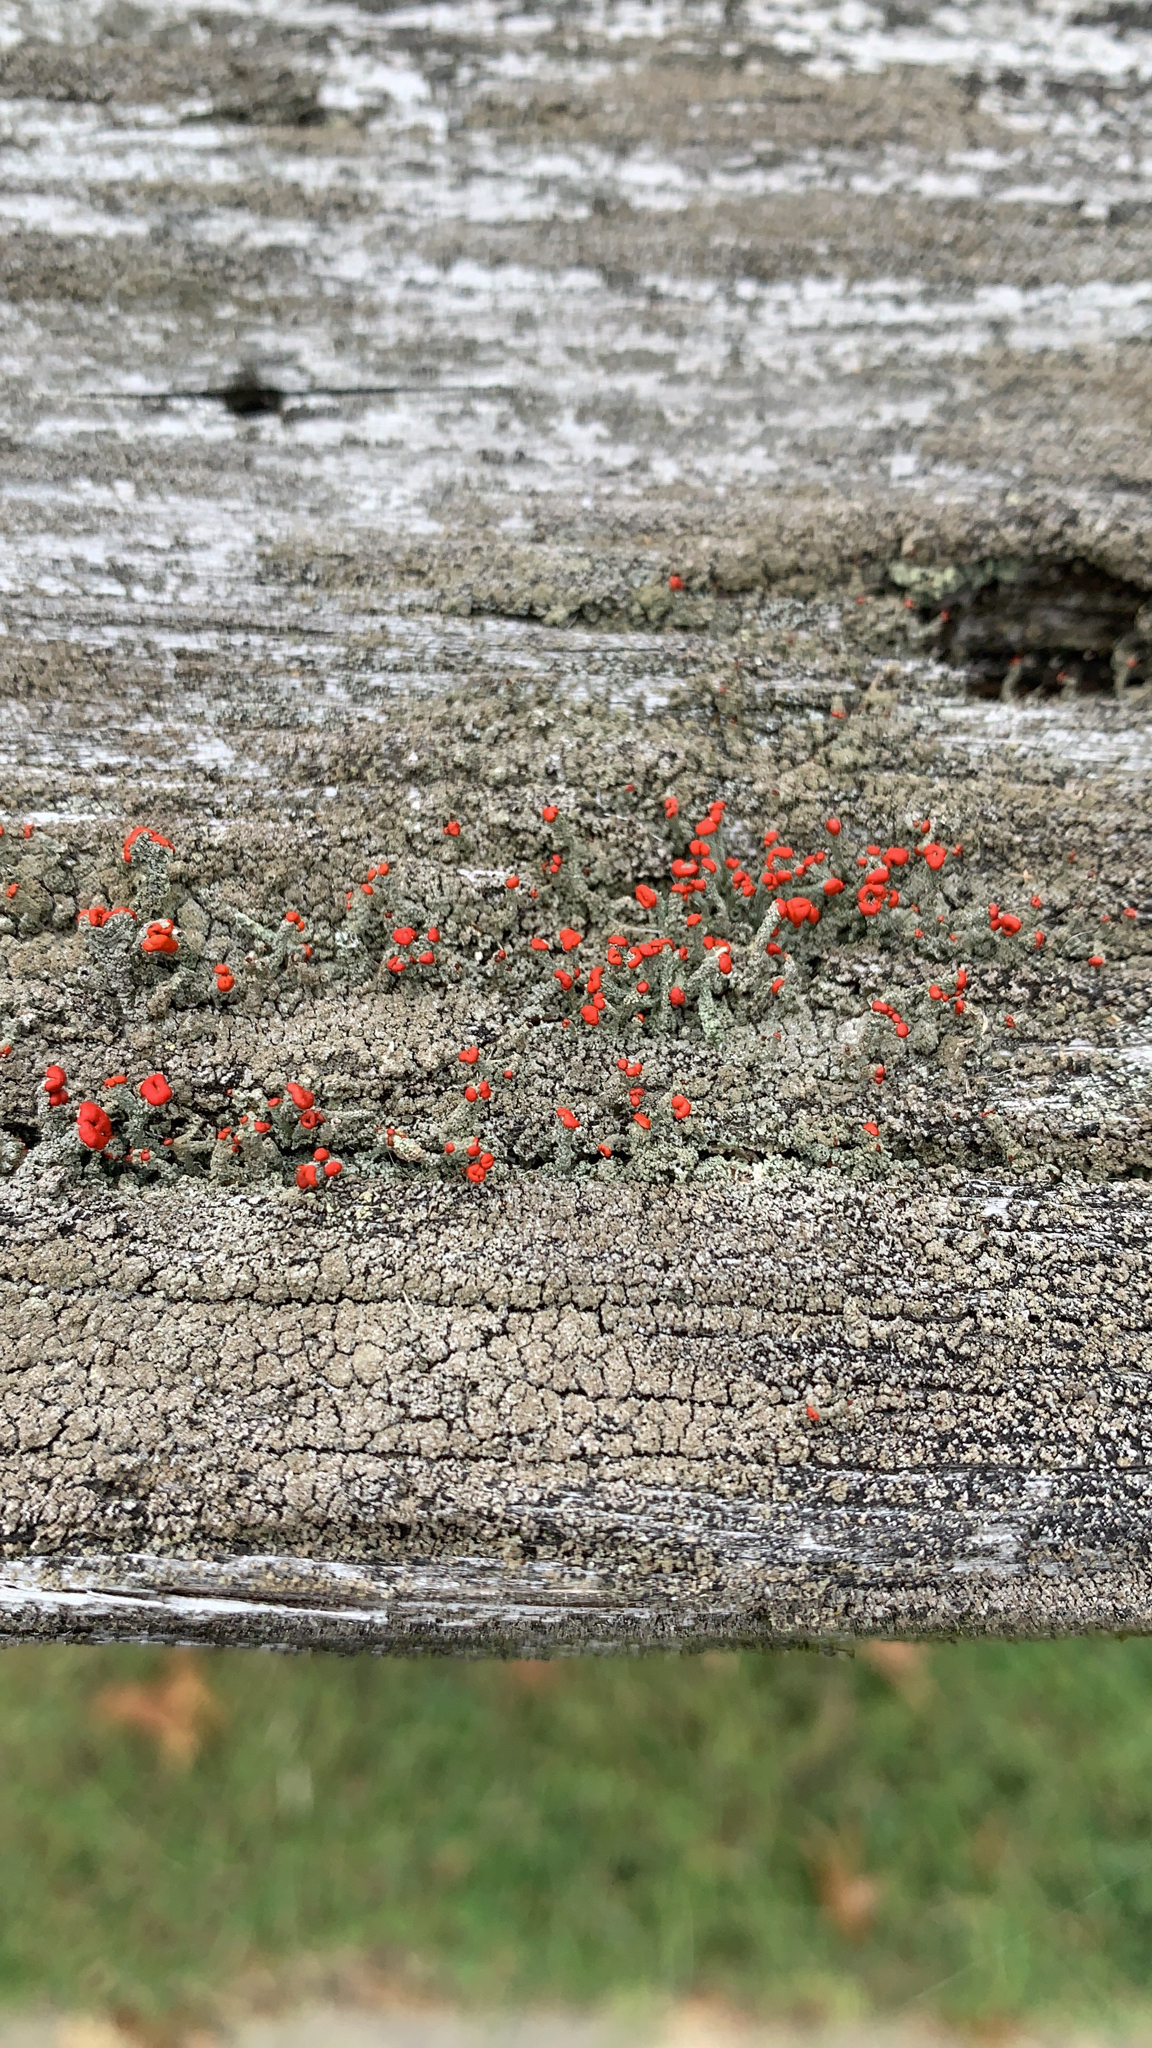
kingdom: Fungi
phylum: Ascomycota
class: Lecanoromycetes
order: Lecanorales
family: Cladoniaceae
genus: Cladonia
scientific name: Cladonia didyma
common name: Southern soldiers
